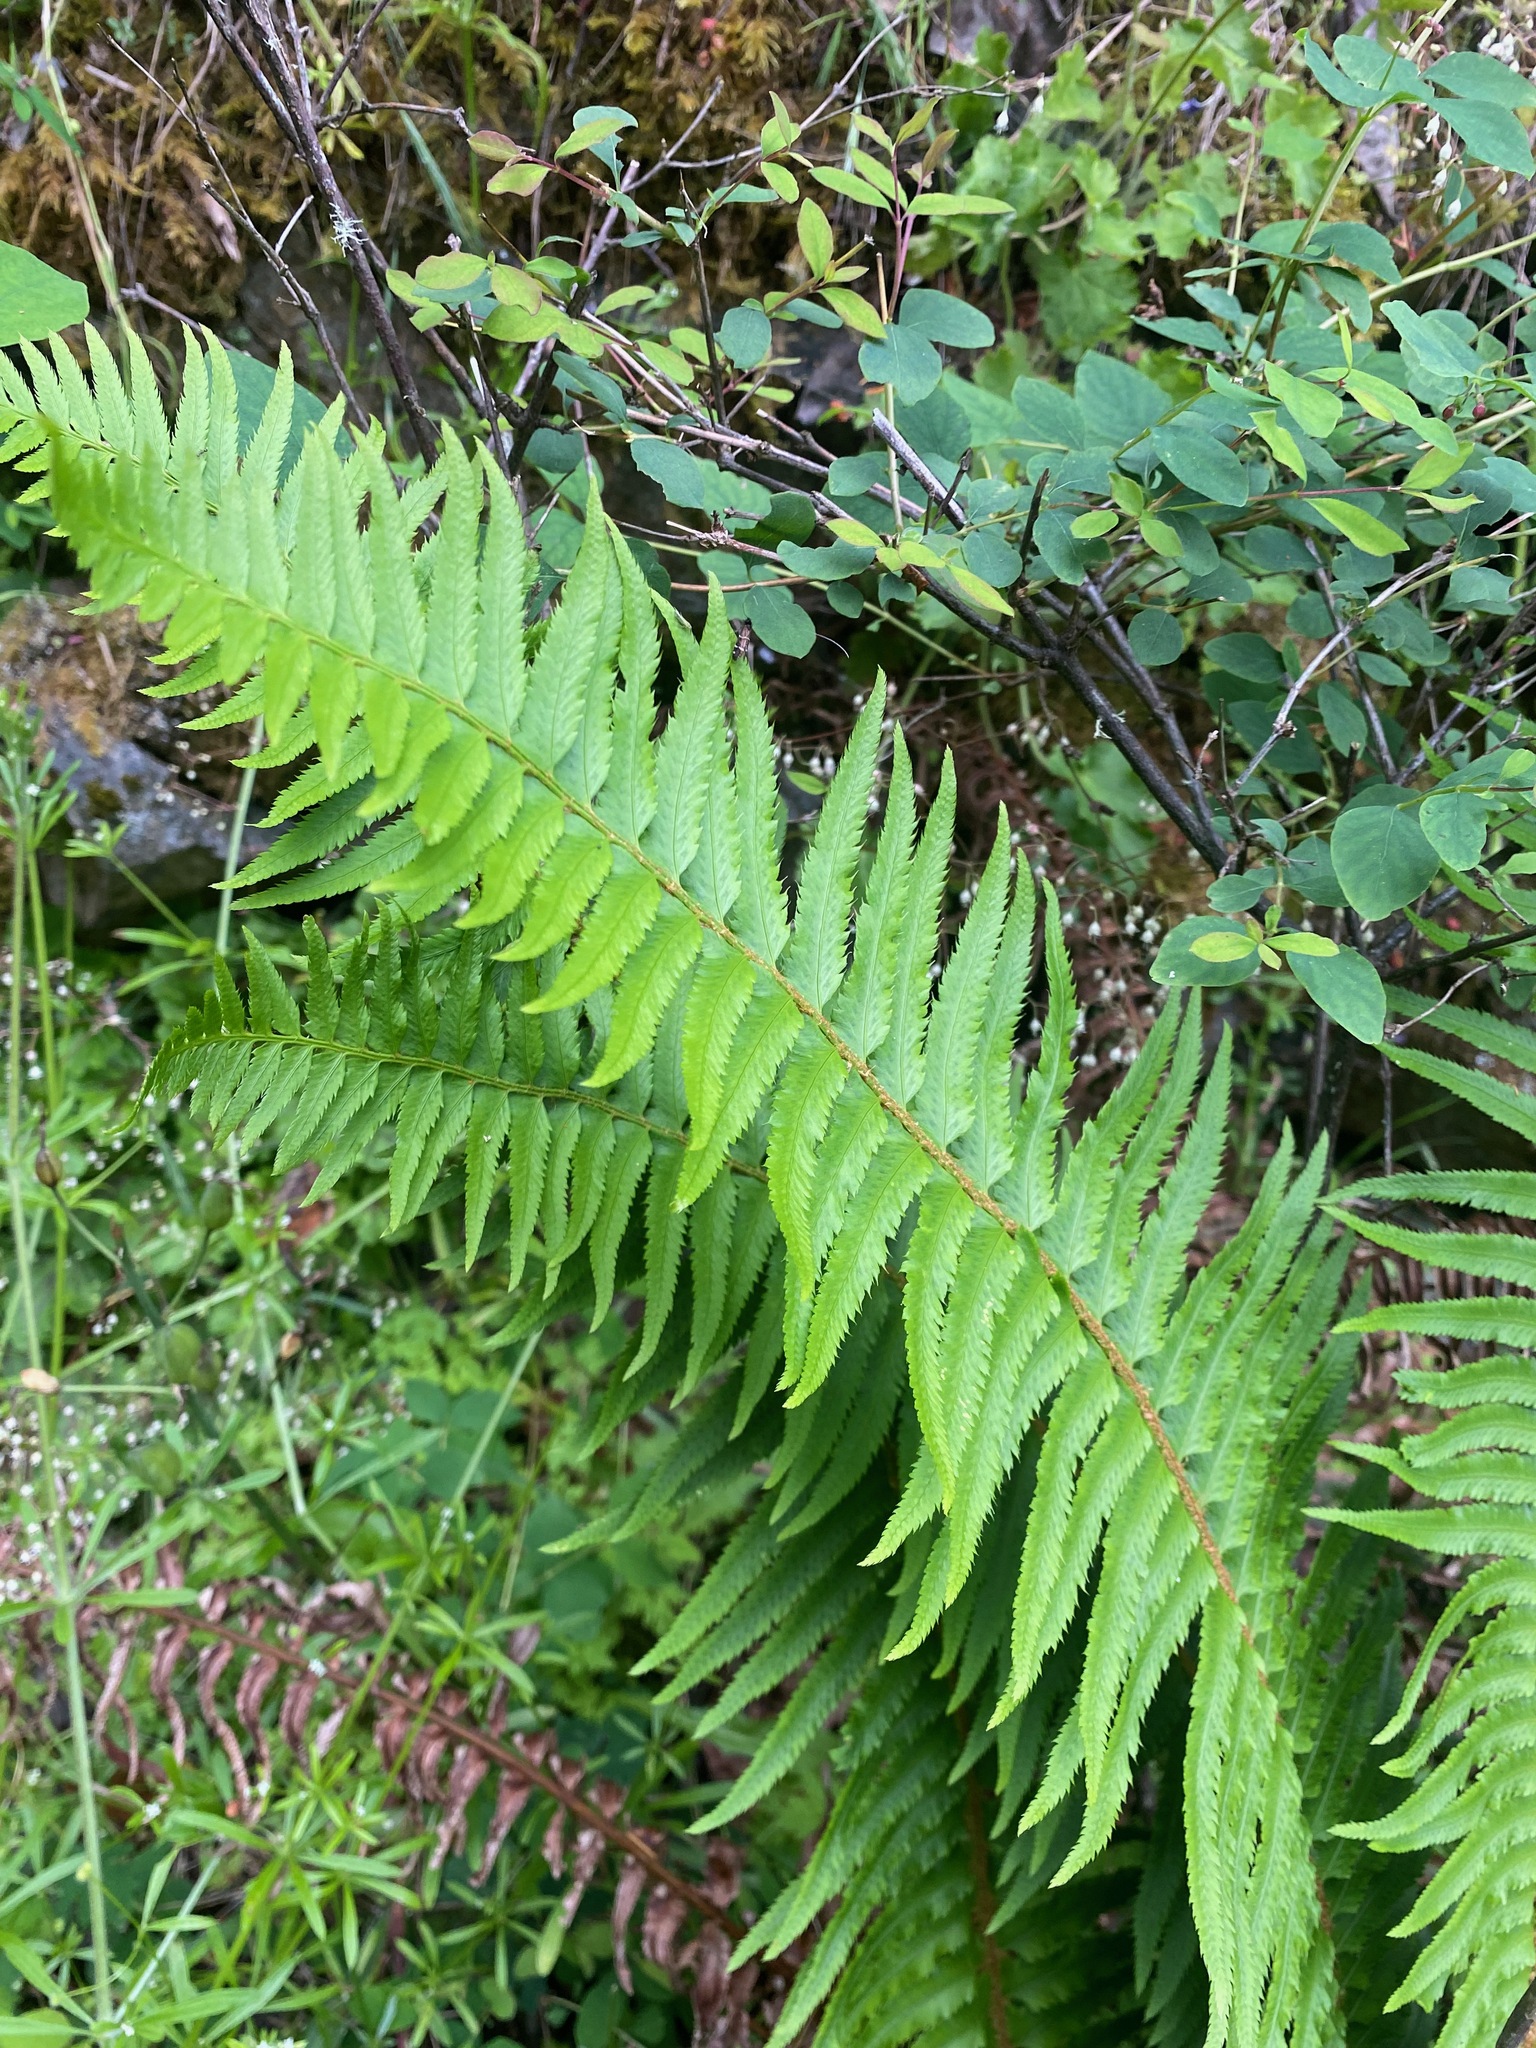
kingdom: Plantae
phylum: Tracheophyta
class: Polypodiopsida
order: Polypodiales
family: Dryopteridaceae
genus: Polystichum
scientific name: Polystichum munitum
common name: Western sword-fern
